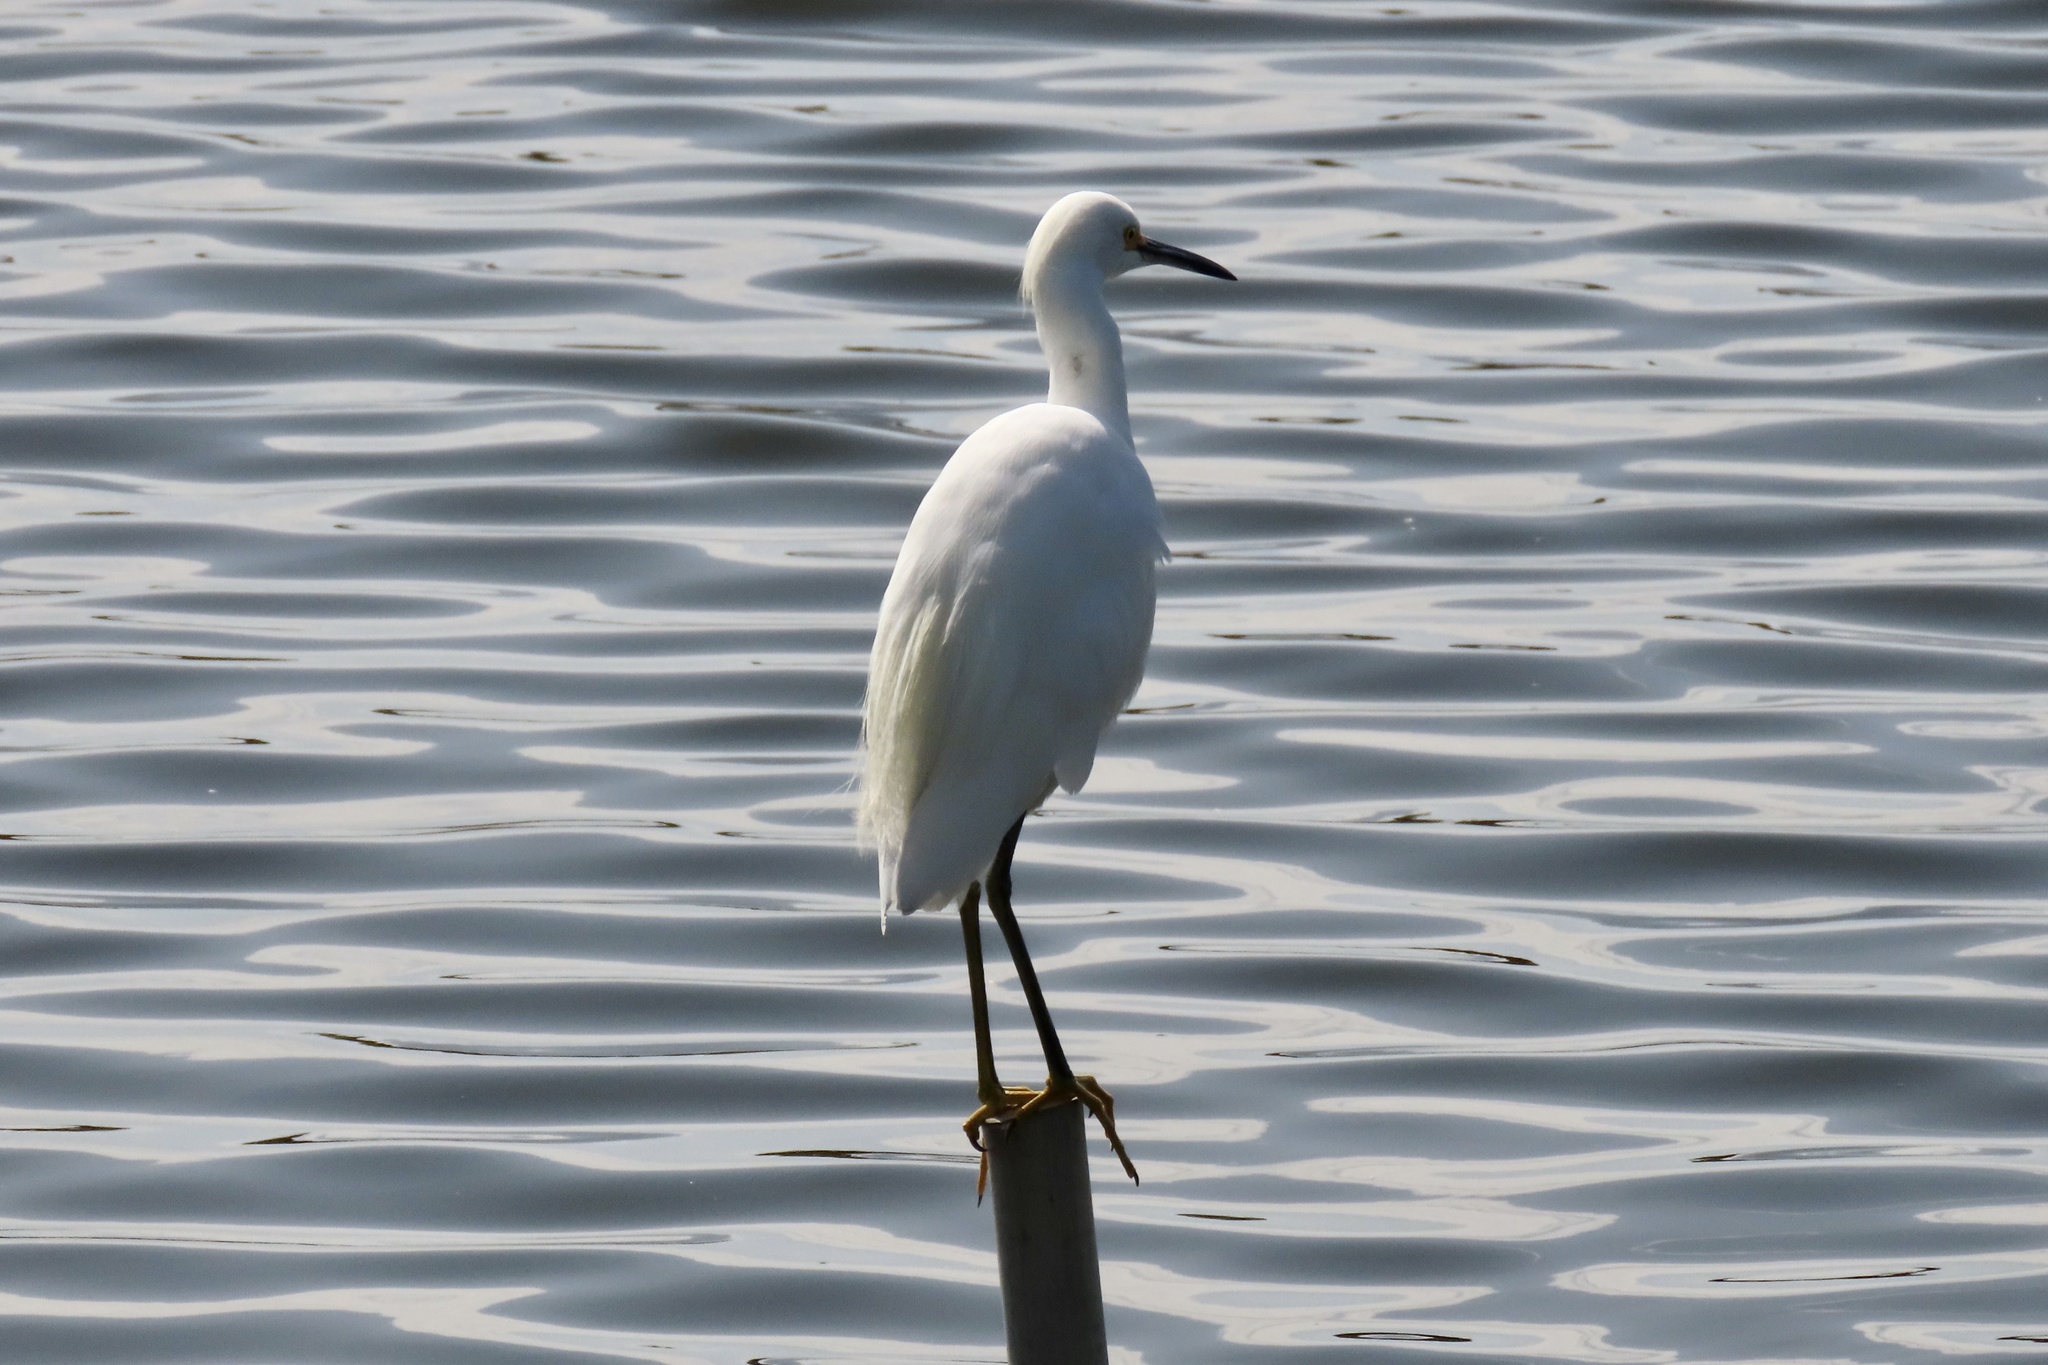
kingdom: Animalia
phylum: Chordata
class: Aves
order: Pelecaniformes
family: Ardeidae
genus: Egretta
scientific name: Egretta thula
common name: Snowy egret
